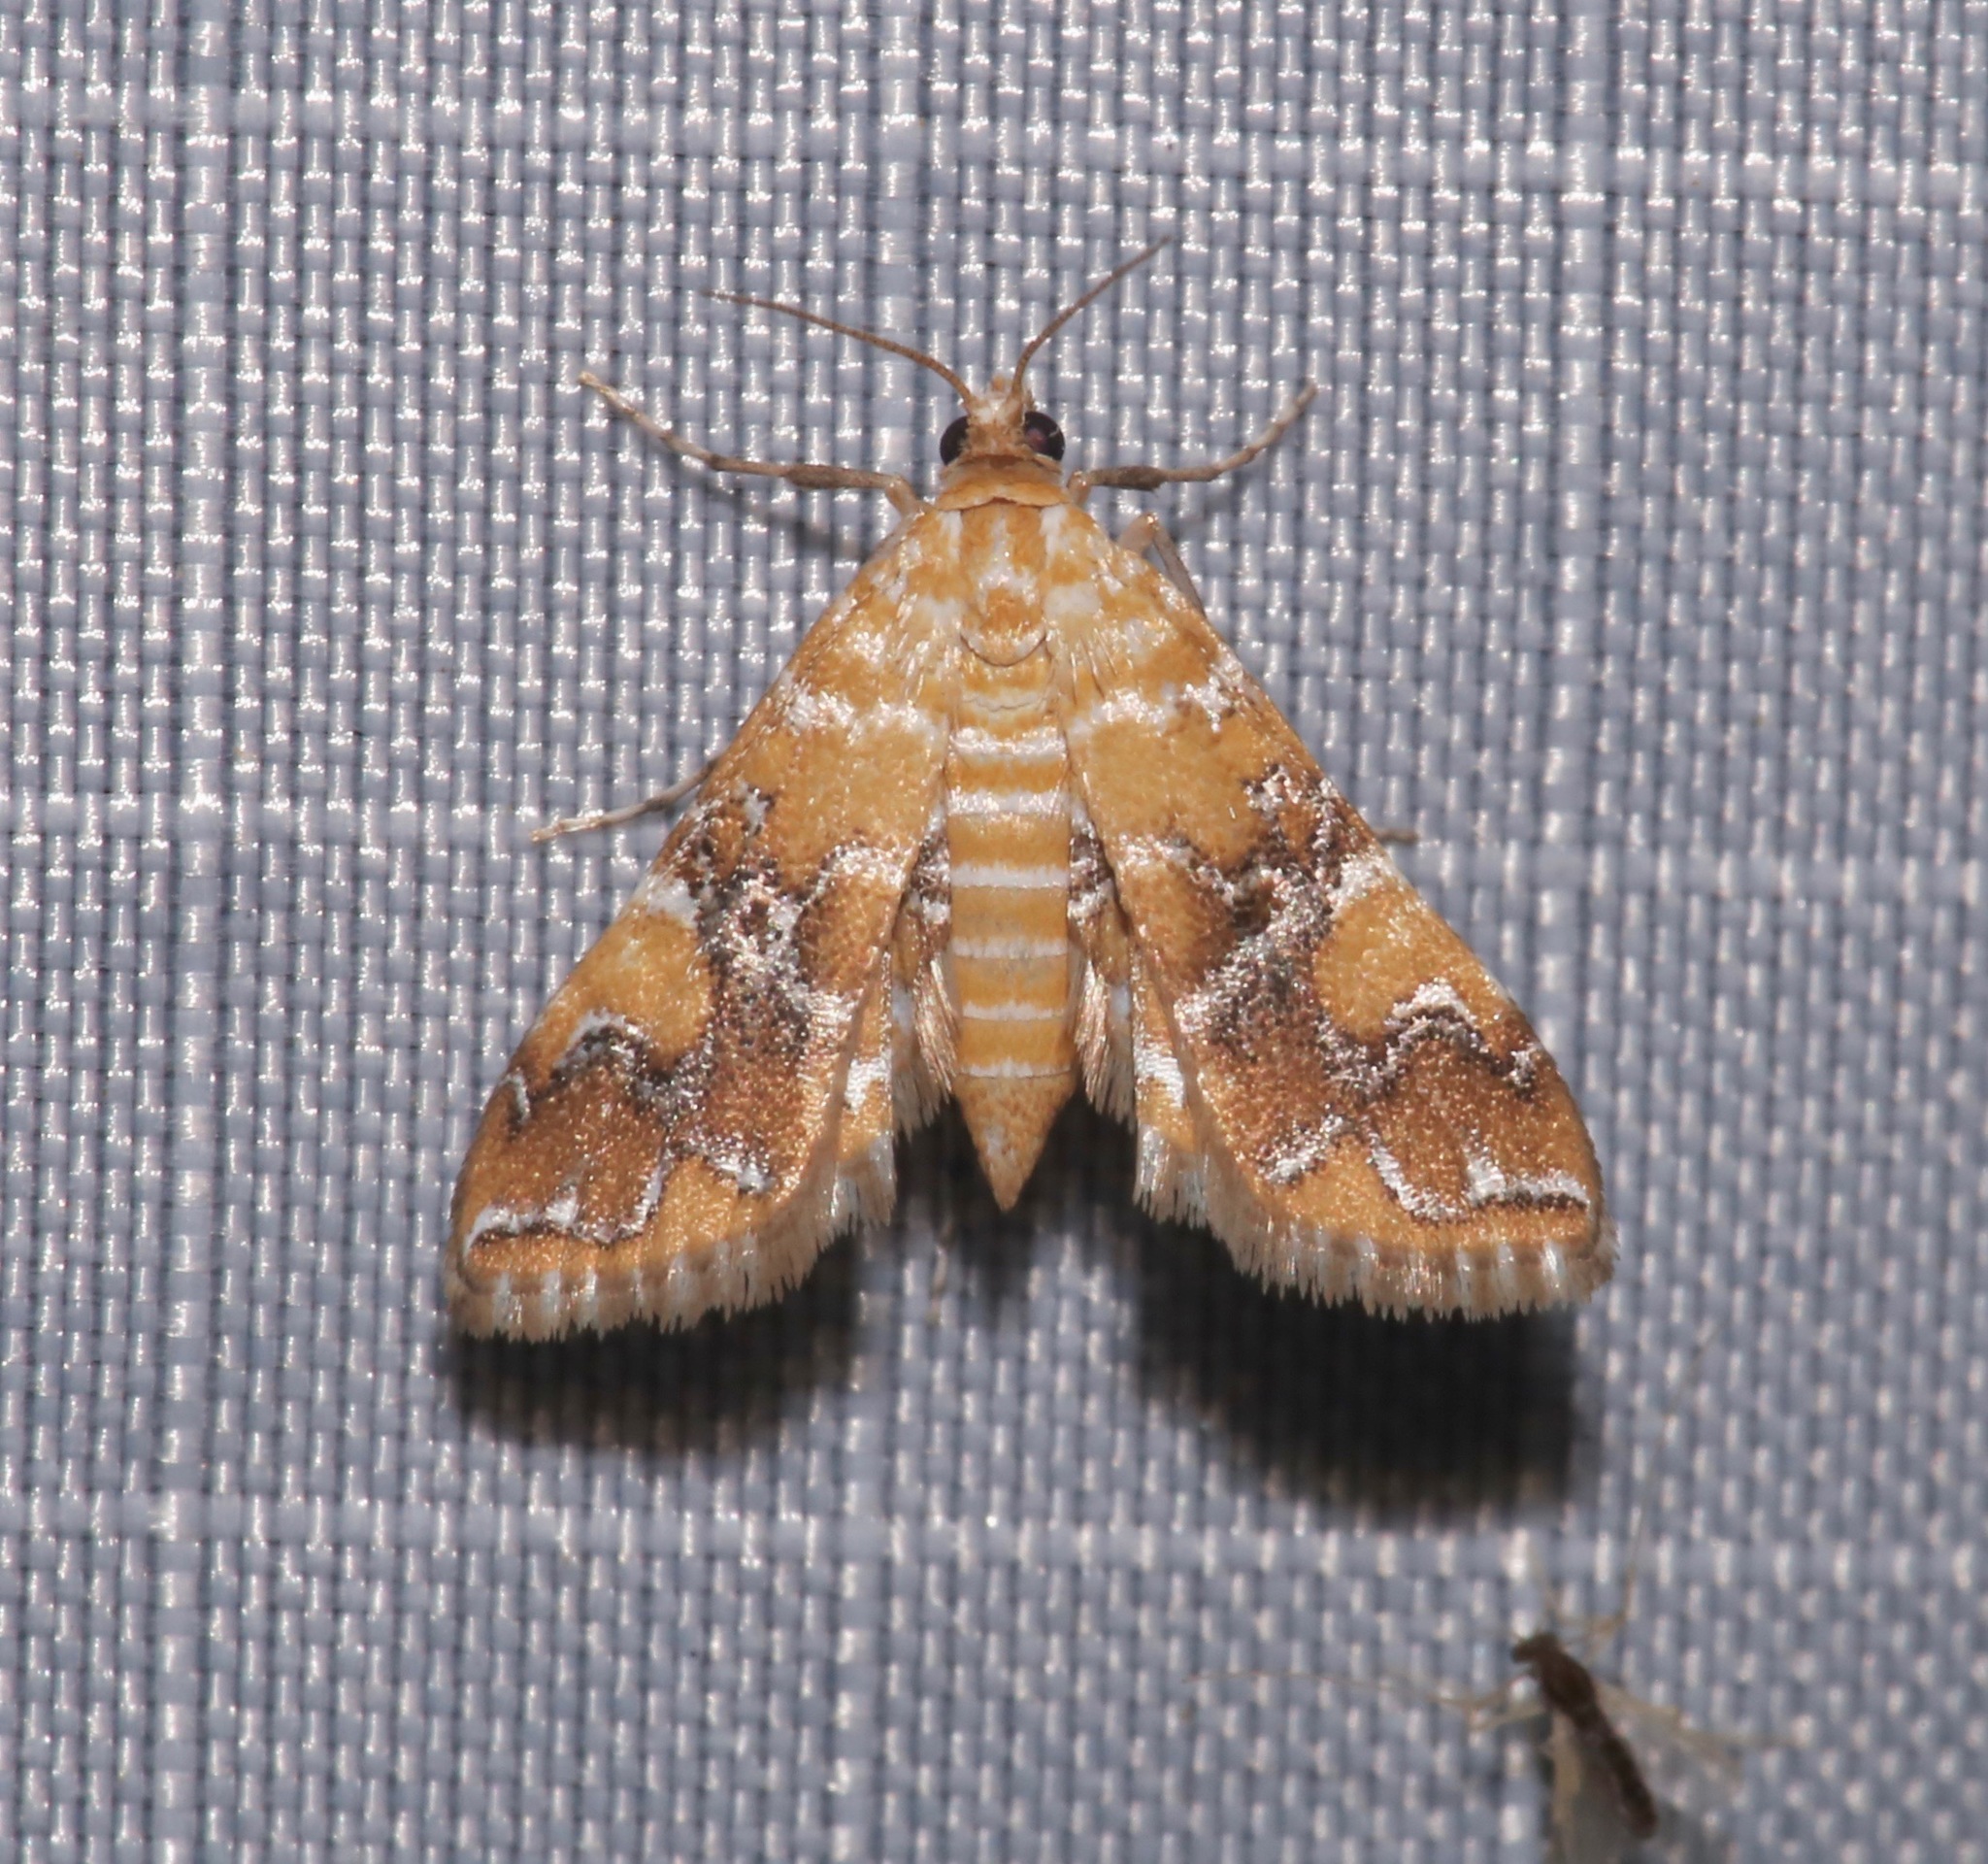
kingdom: Animalia
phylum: Arthropoda
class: Insecta
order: Lepidoptera
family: Crambidae
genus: Elophila
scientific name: Elophila nebulosalis
